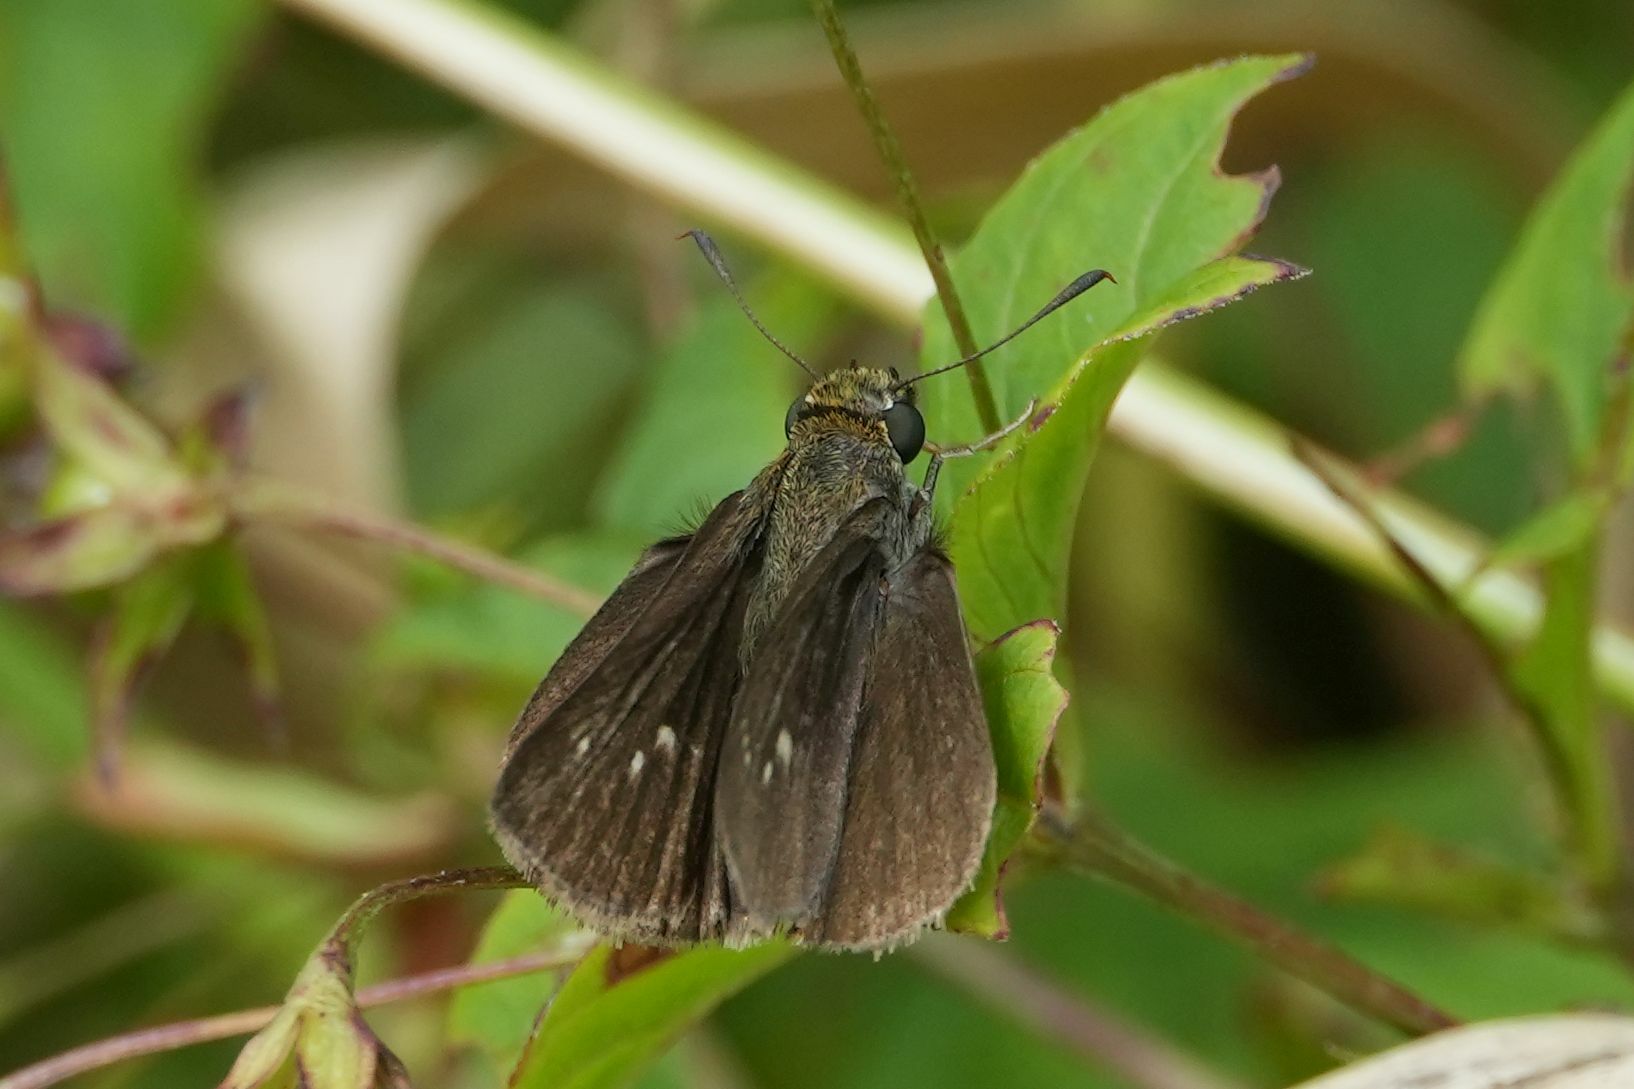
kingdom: Animalia
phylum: Arthropoda
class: Insecta
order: Lepidoptera
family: Hesperiidae
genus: Euphyes
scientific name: Euphyes vestris
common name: Dun skipper
